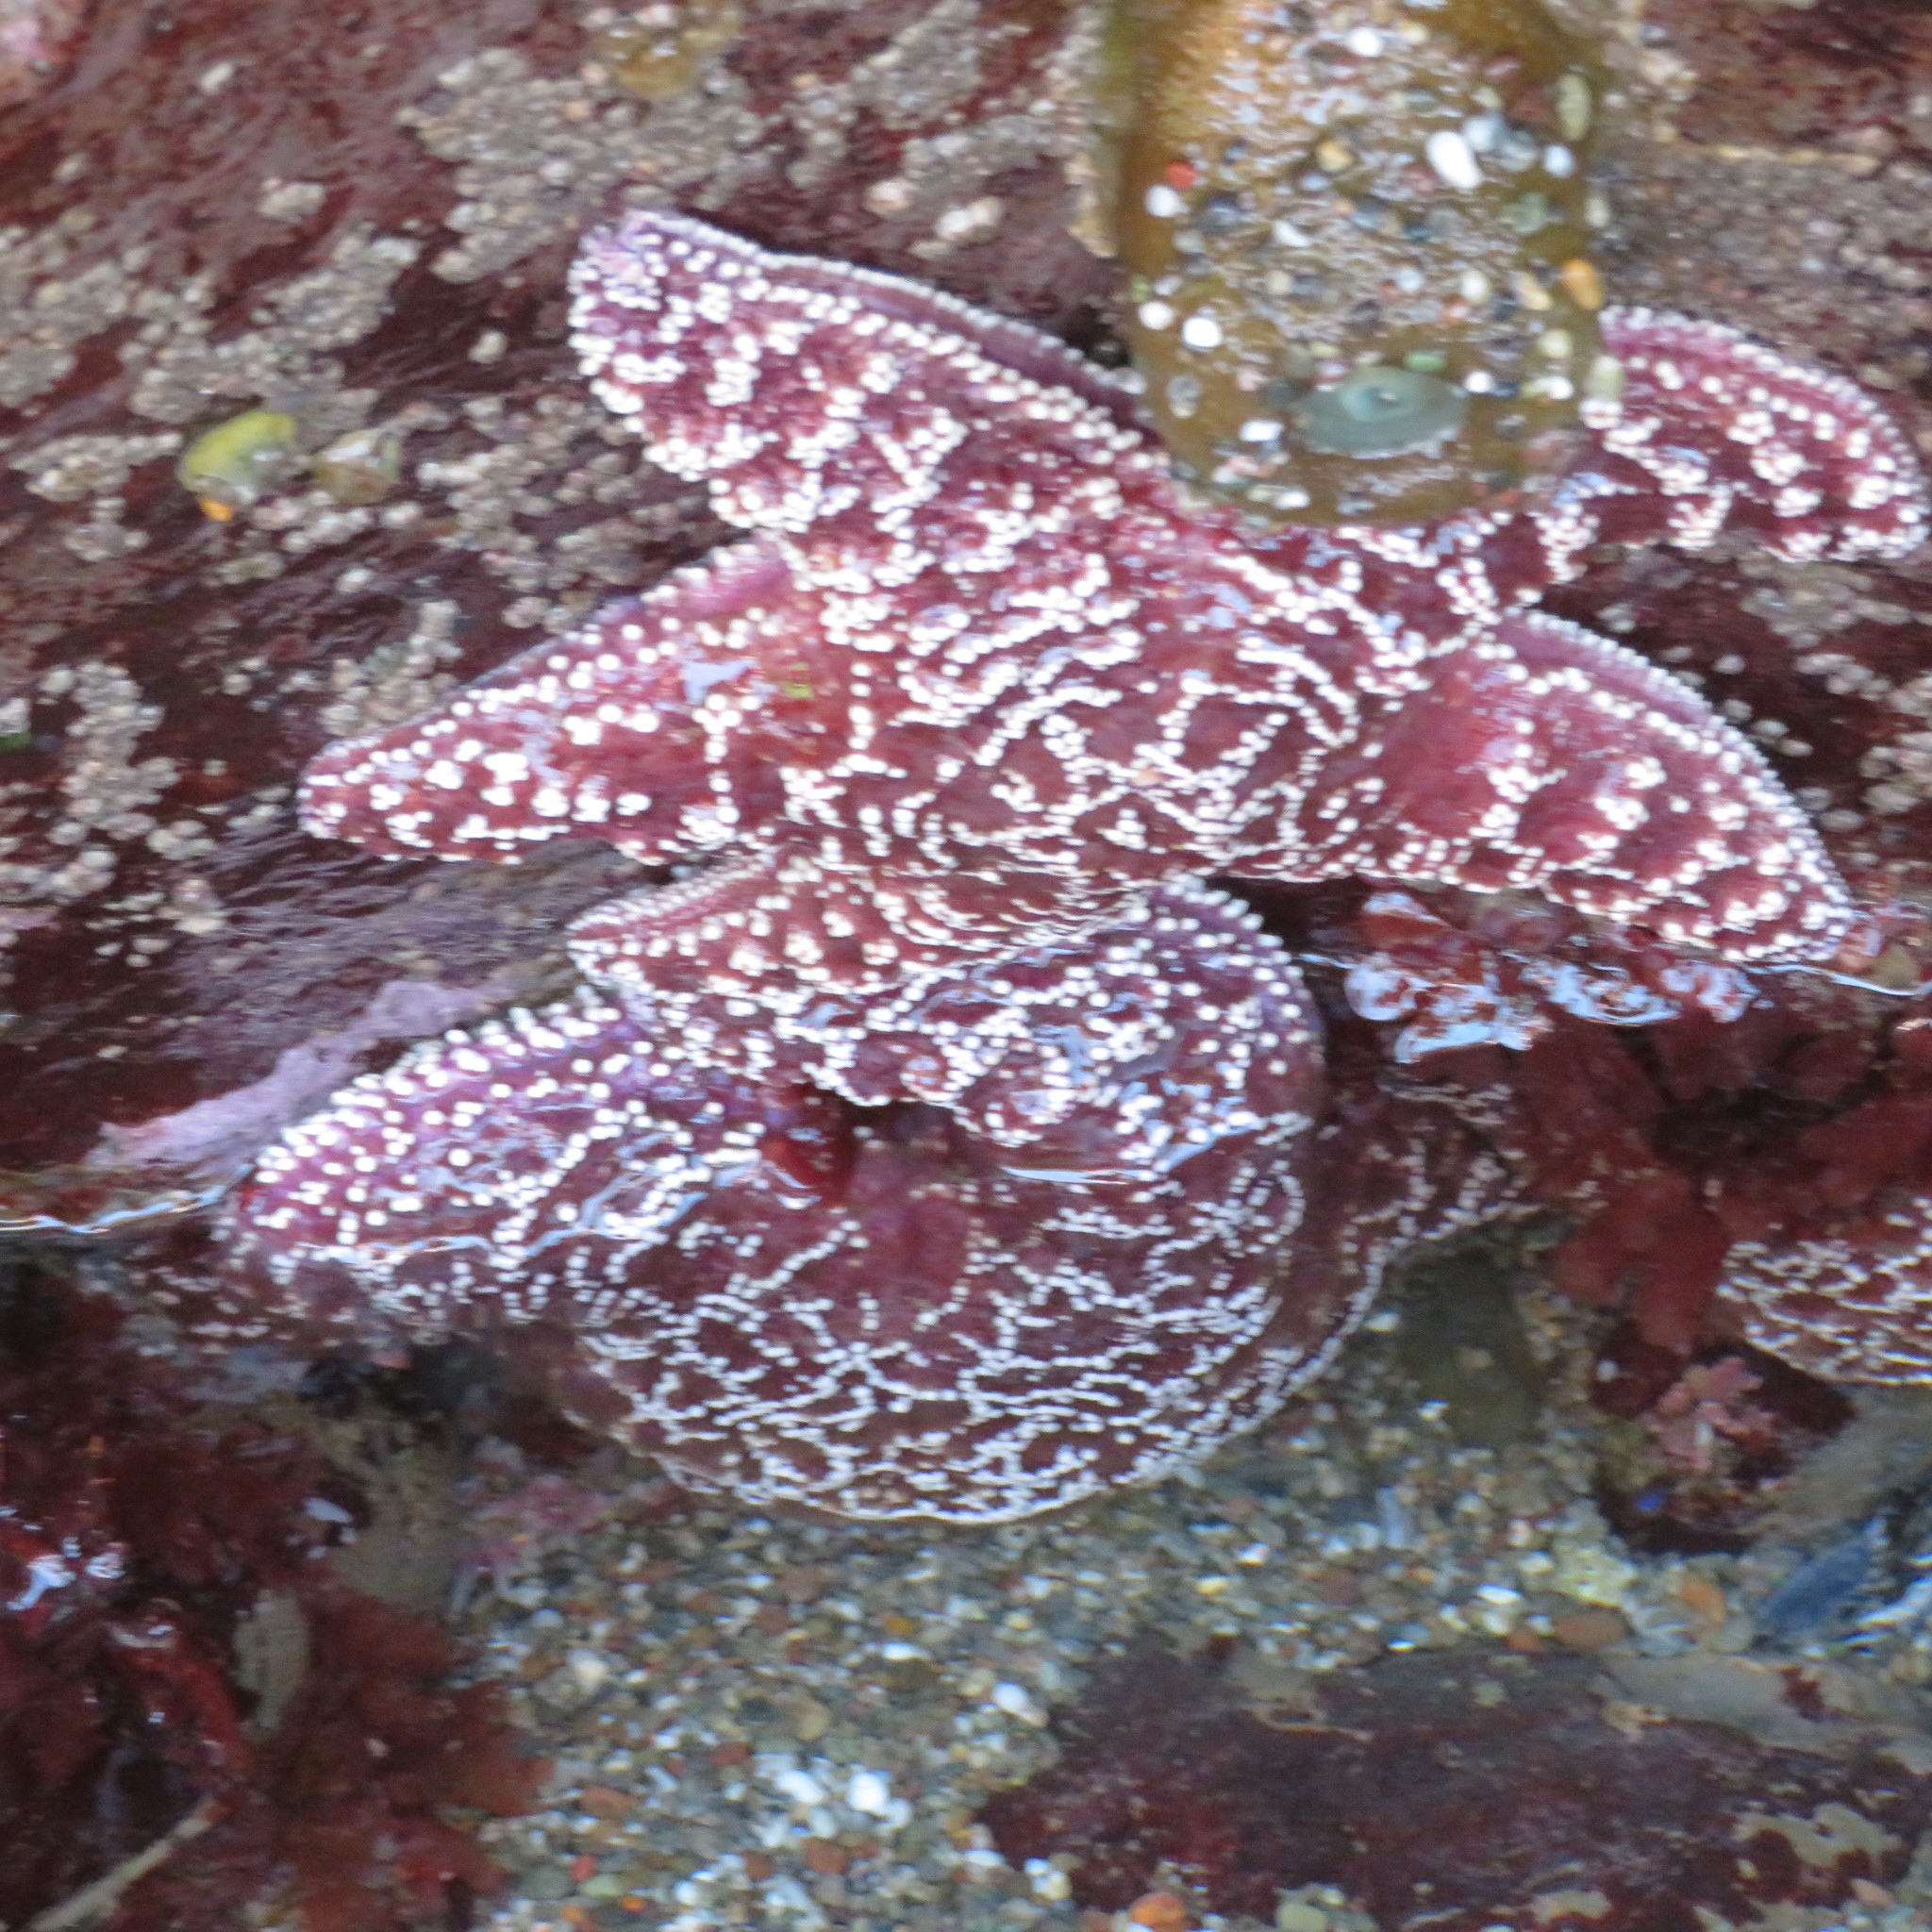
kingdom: Animalia
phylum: Echinodermata
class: Asteroidea
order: Forcipulatida
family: Asteriidae
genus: Pisaster
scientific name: Pisaster ochraceus
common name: Ochre stars
